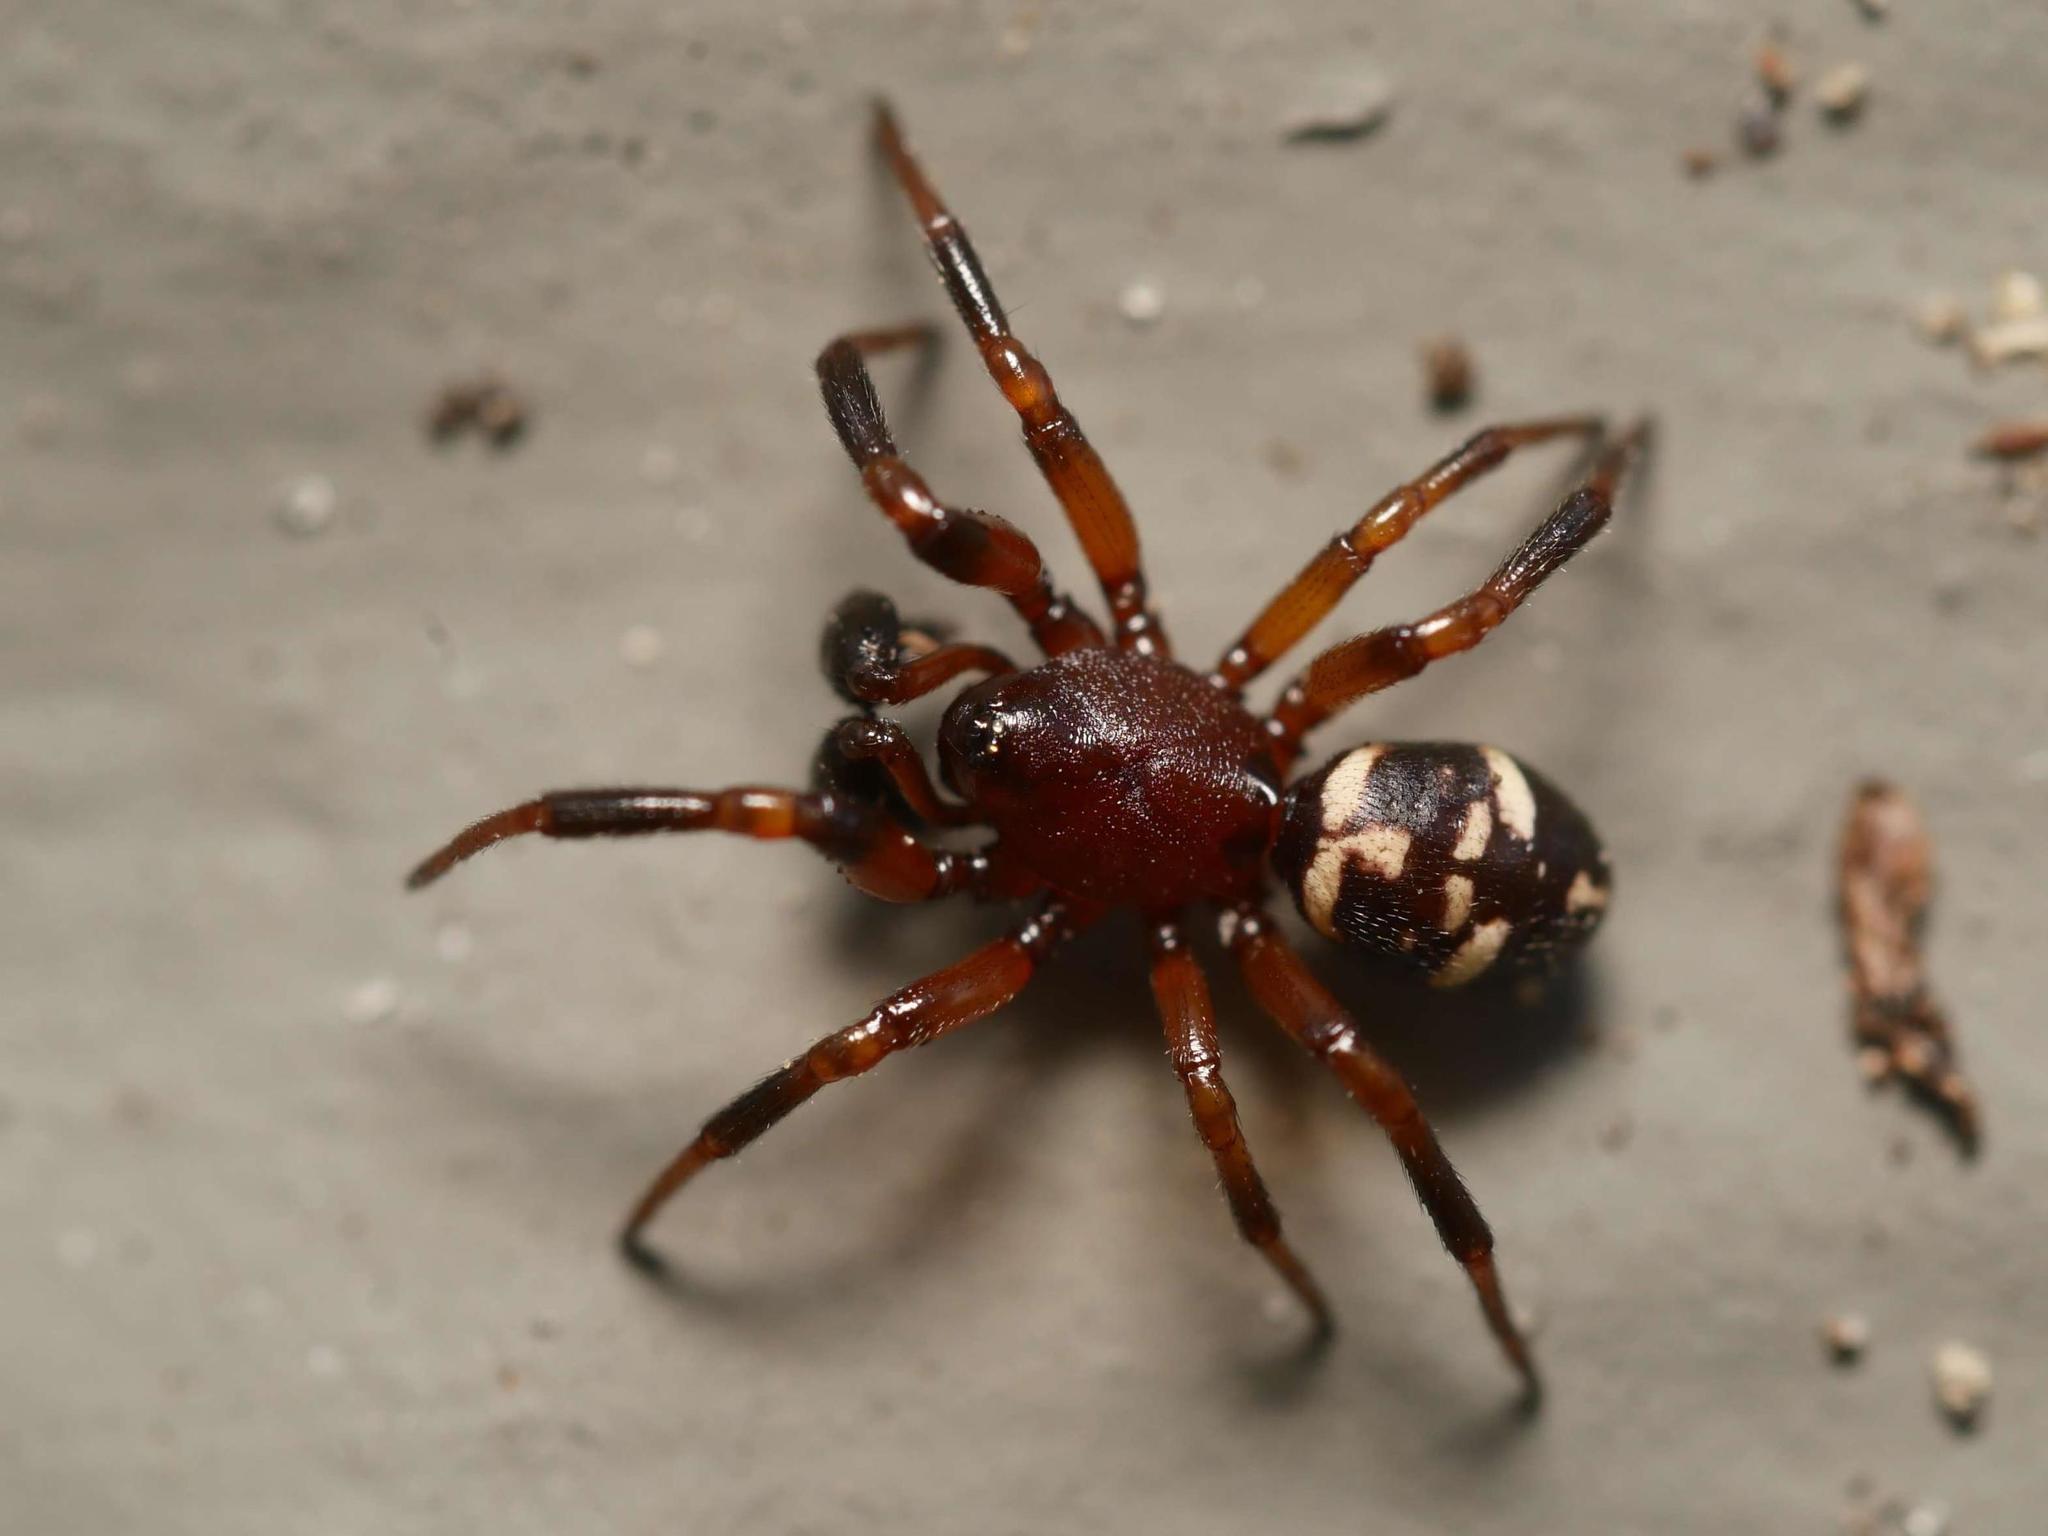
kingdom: Animalia
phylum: Arthropoda
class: Arachnida
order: Araneae
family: Theridiidae
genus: Asagena
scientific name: Asagena phalerata
